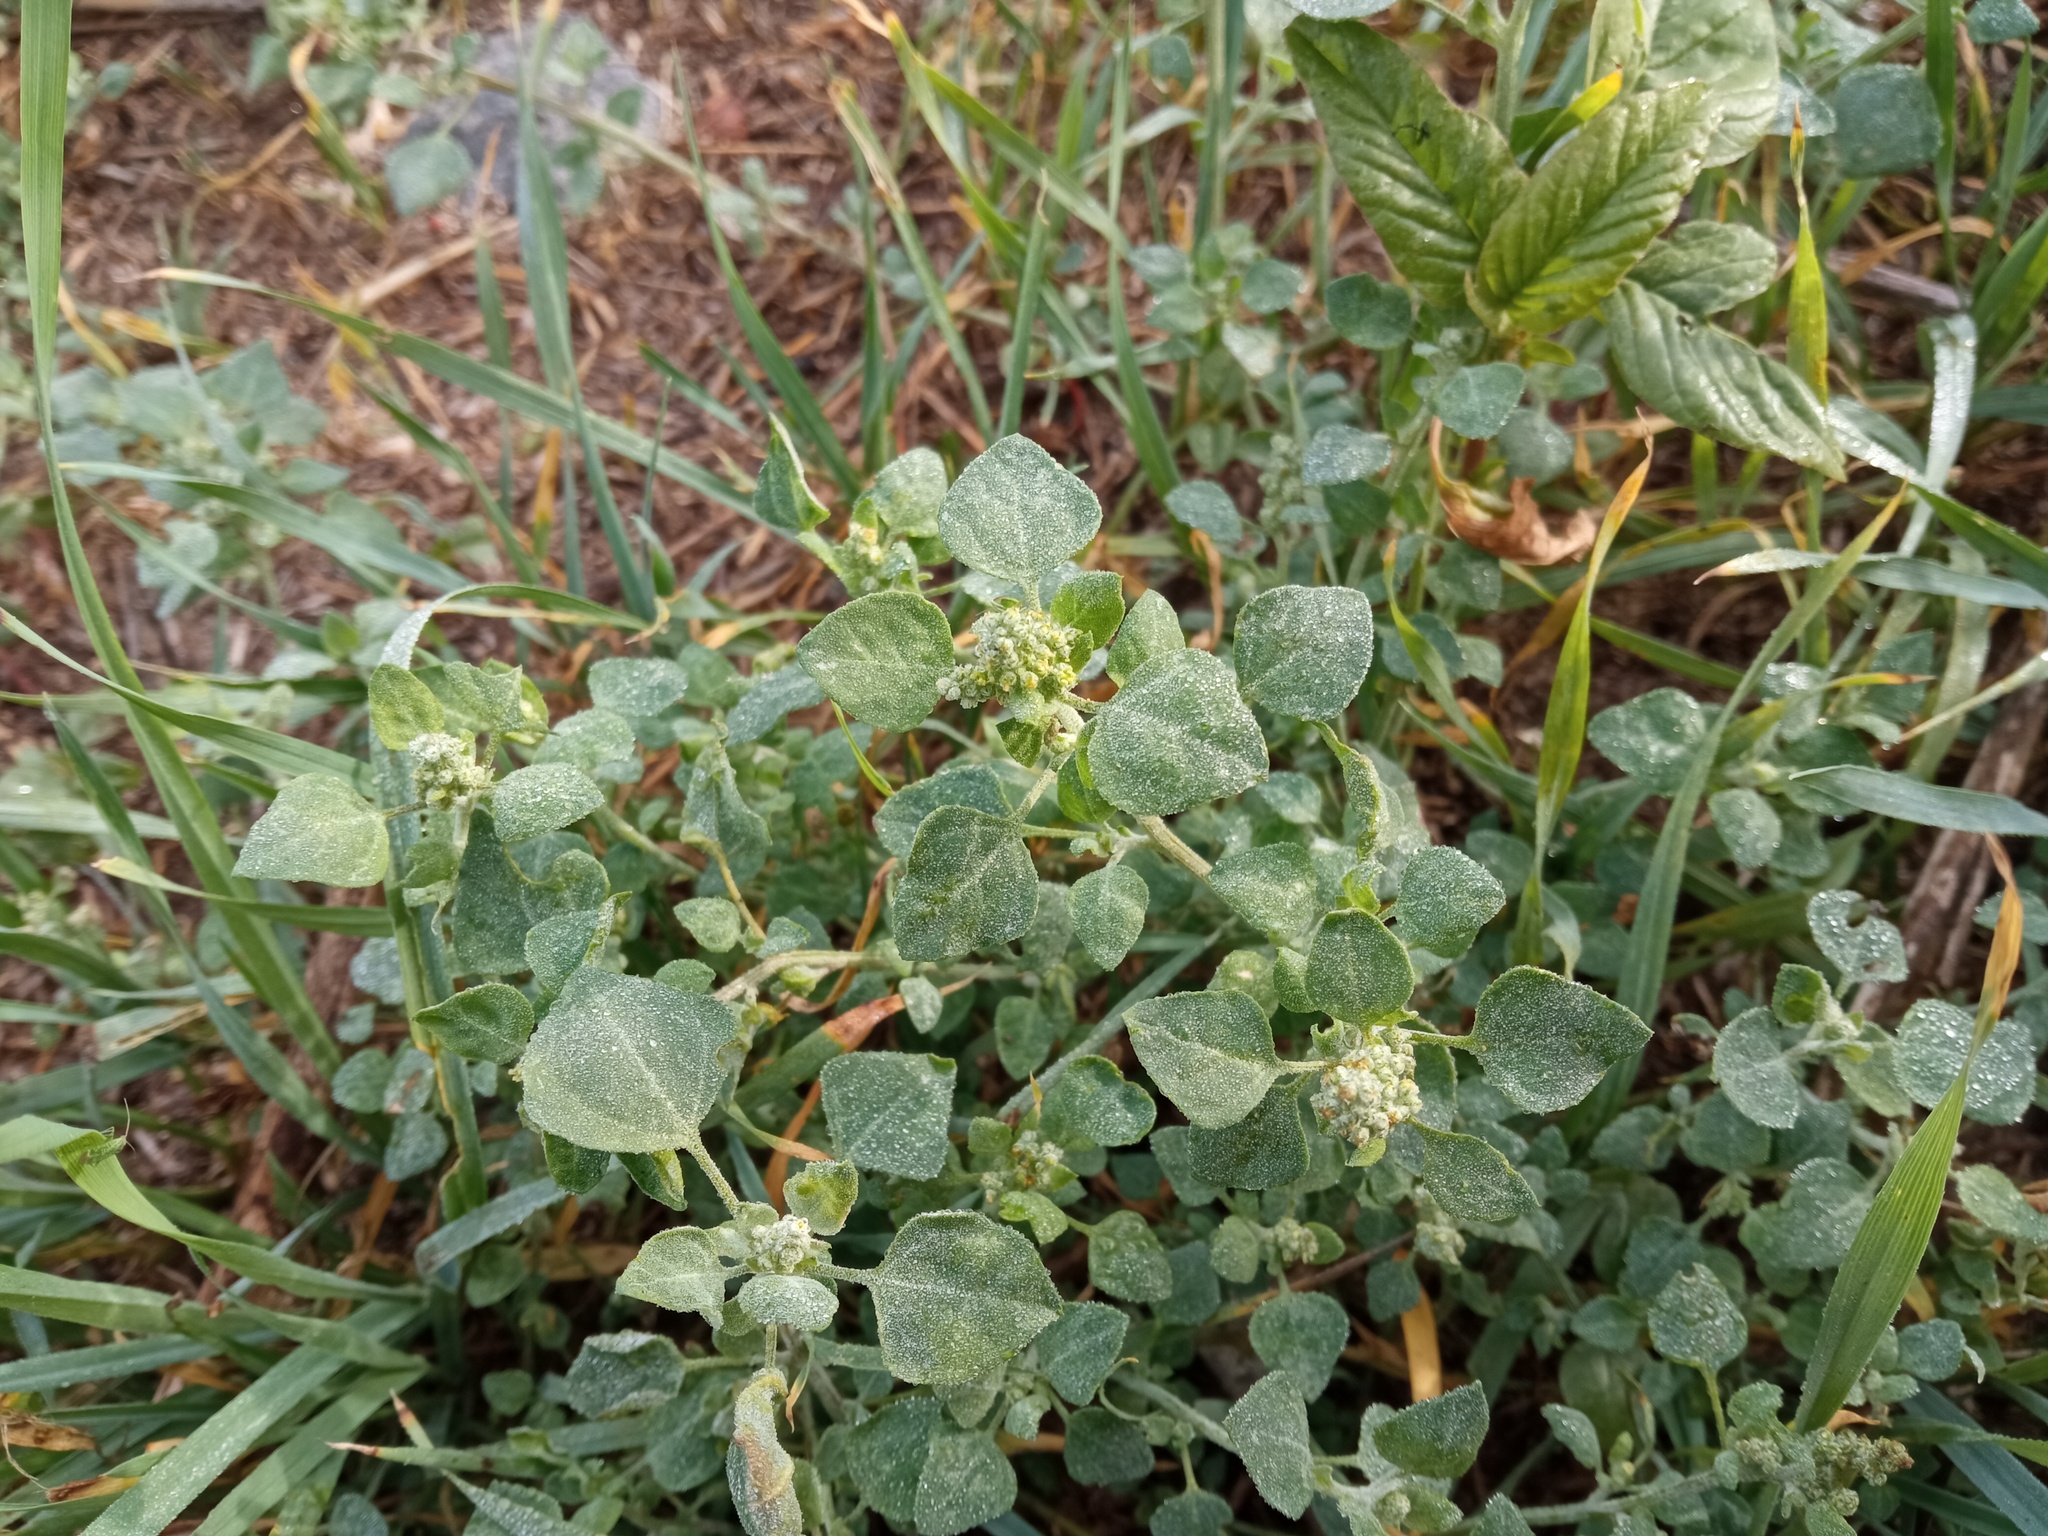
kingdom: Plantae
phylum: Tracheophyta
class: Magnoliopsida
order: Caryophyllales
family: Amaranthaceae
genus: Chenopodium
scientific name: Chenopodium vulvaria
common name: Stinking goosefoot
